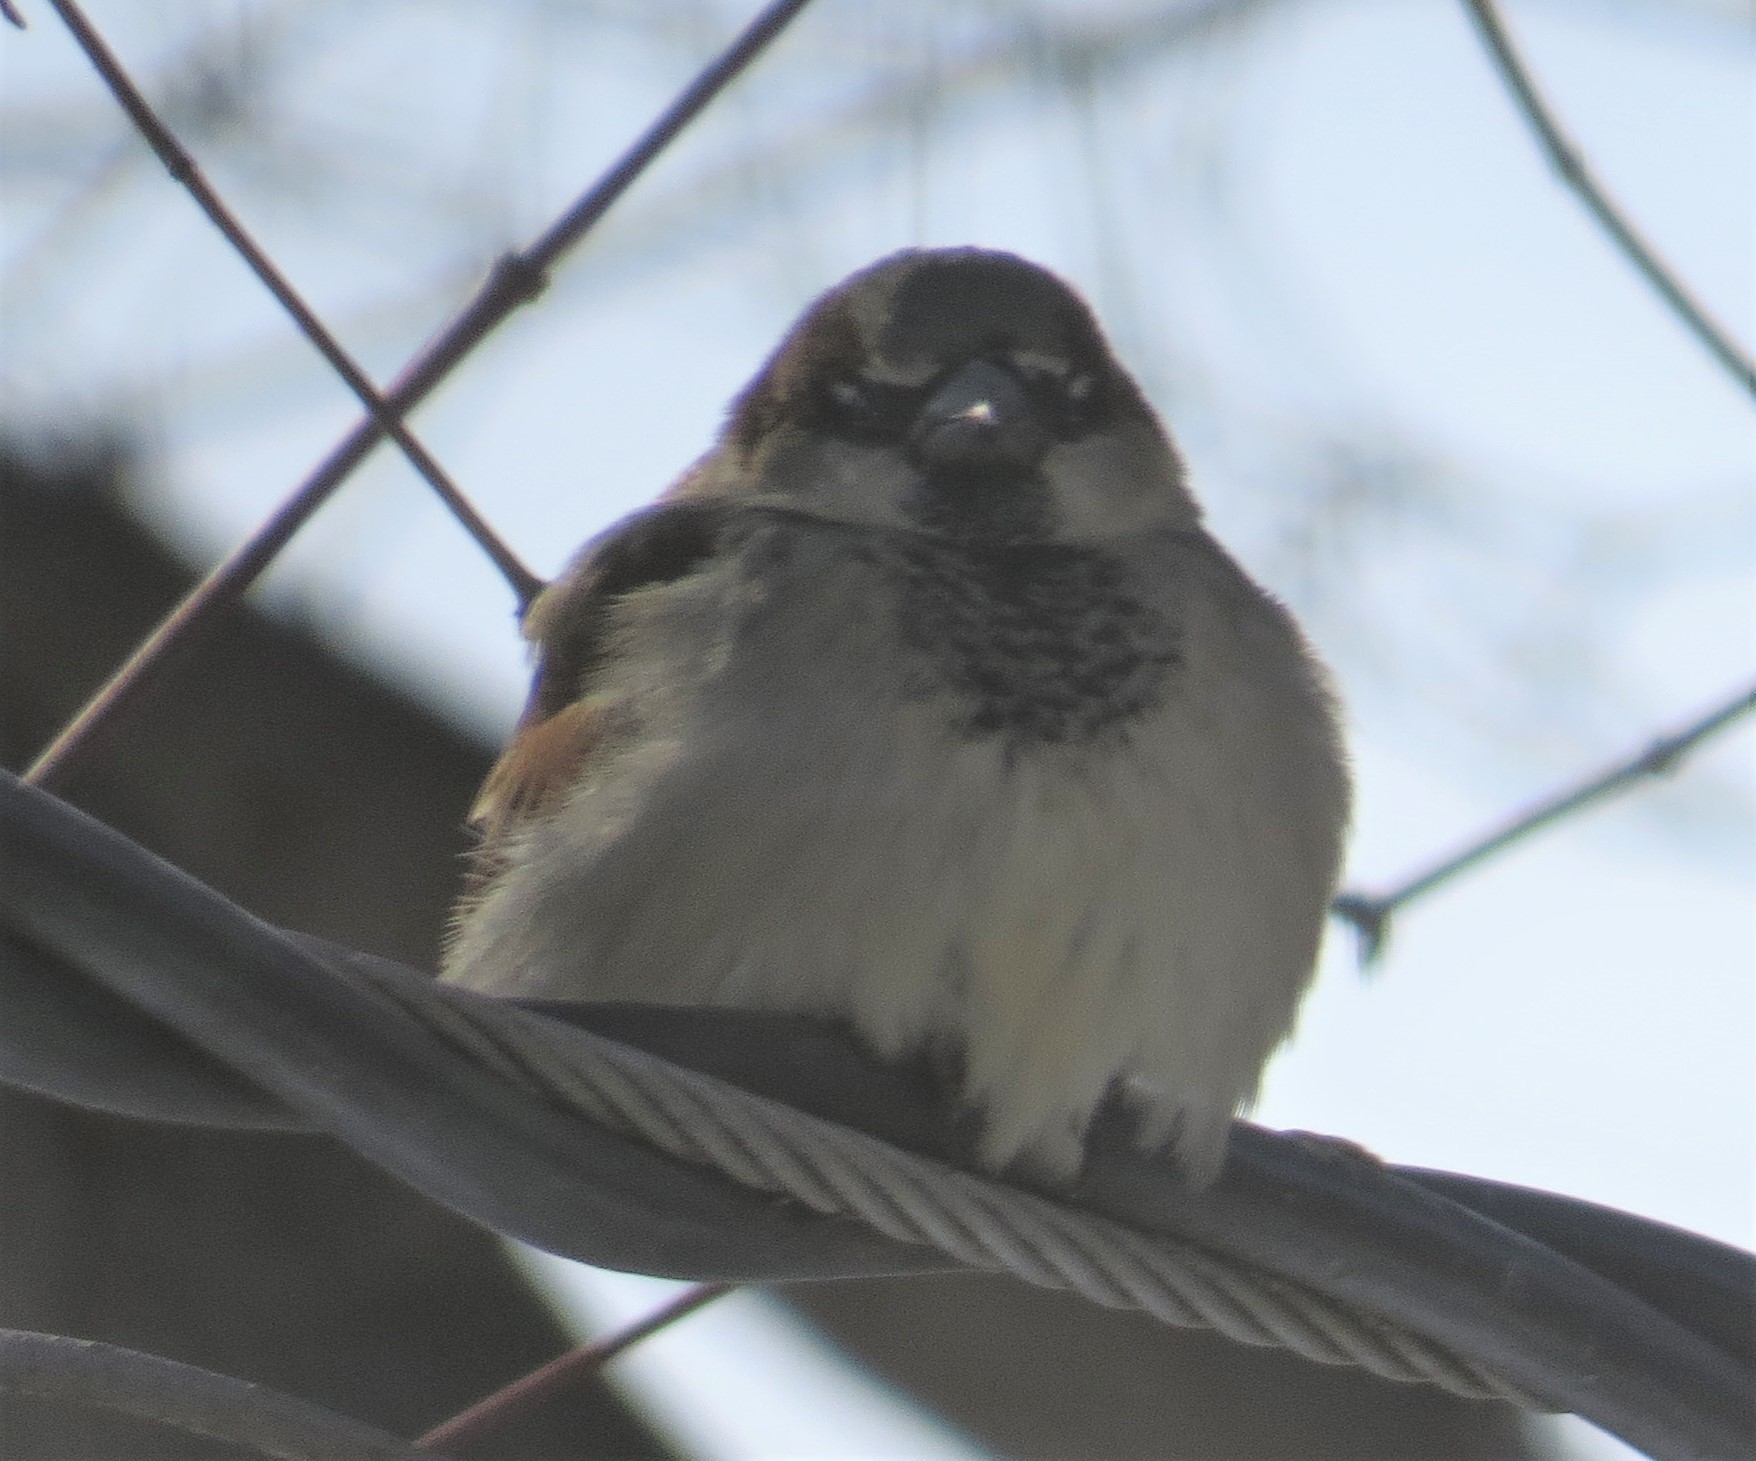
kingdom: Animalia
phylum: Chordata
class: Aves
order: Passeriformes
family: Passeridae
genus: Passer
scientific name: Passer domesticus
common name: House sparrow
